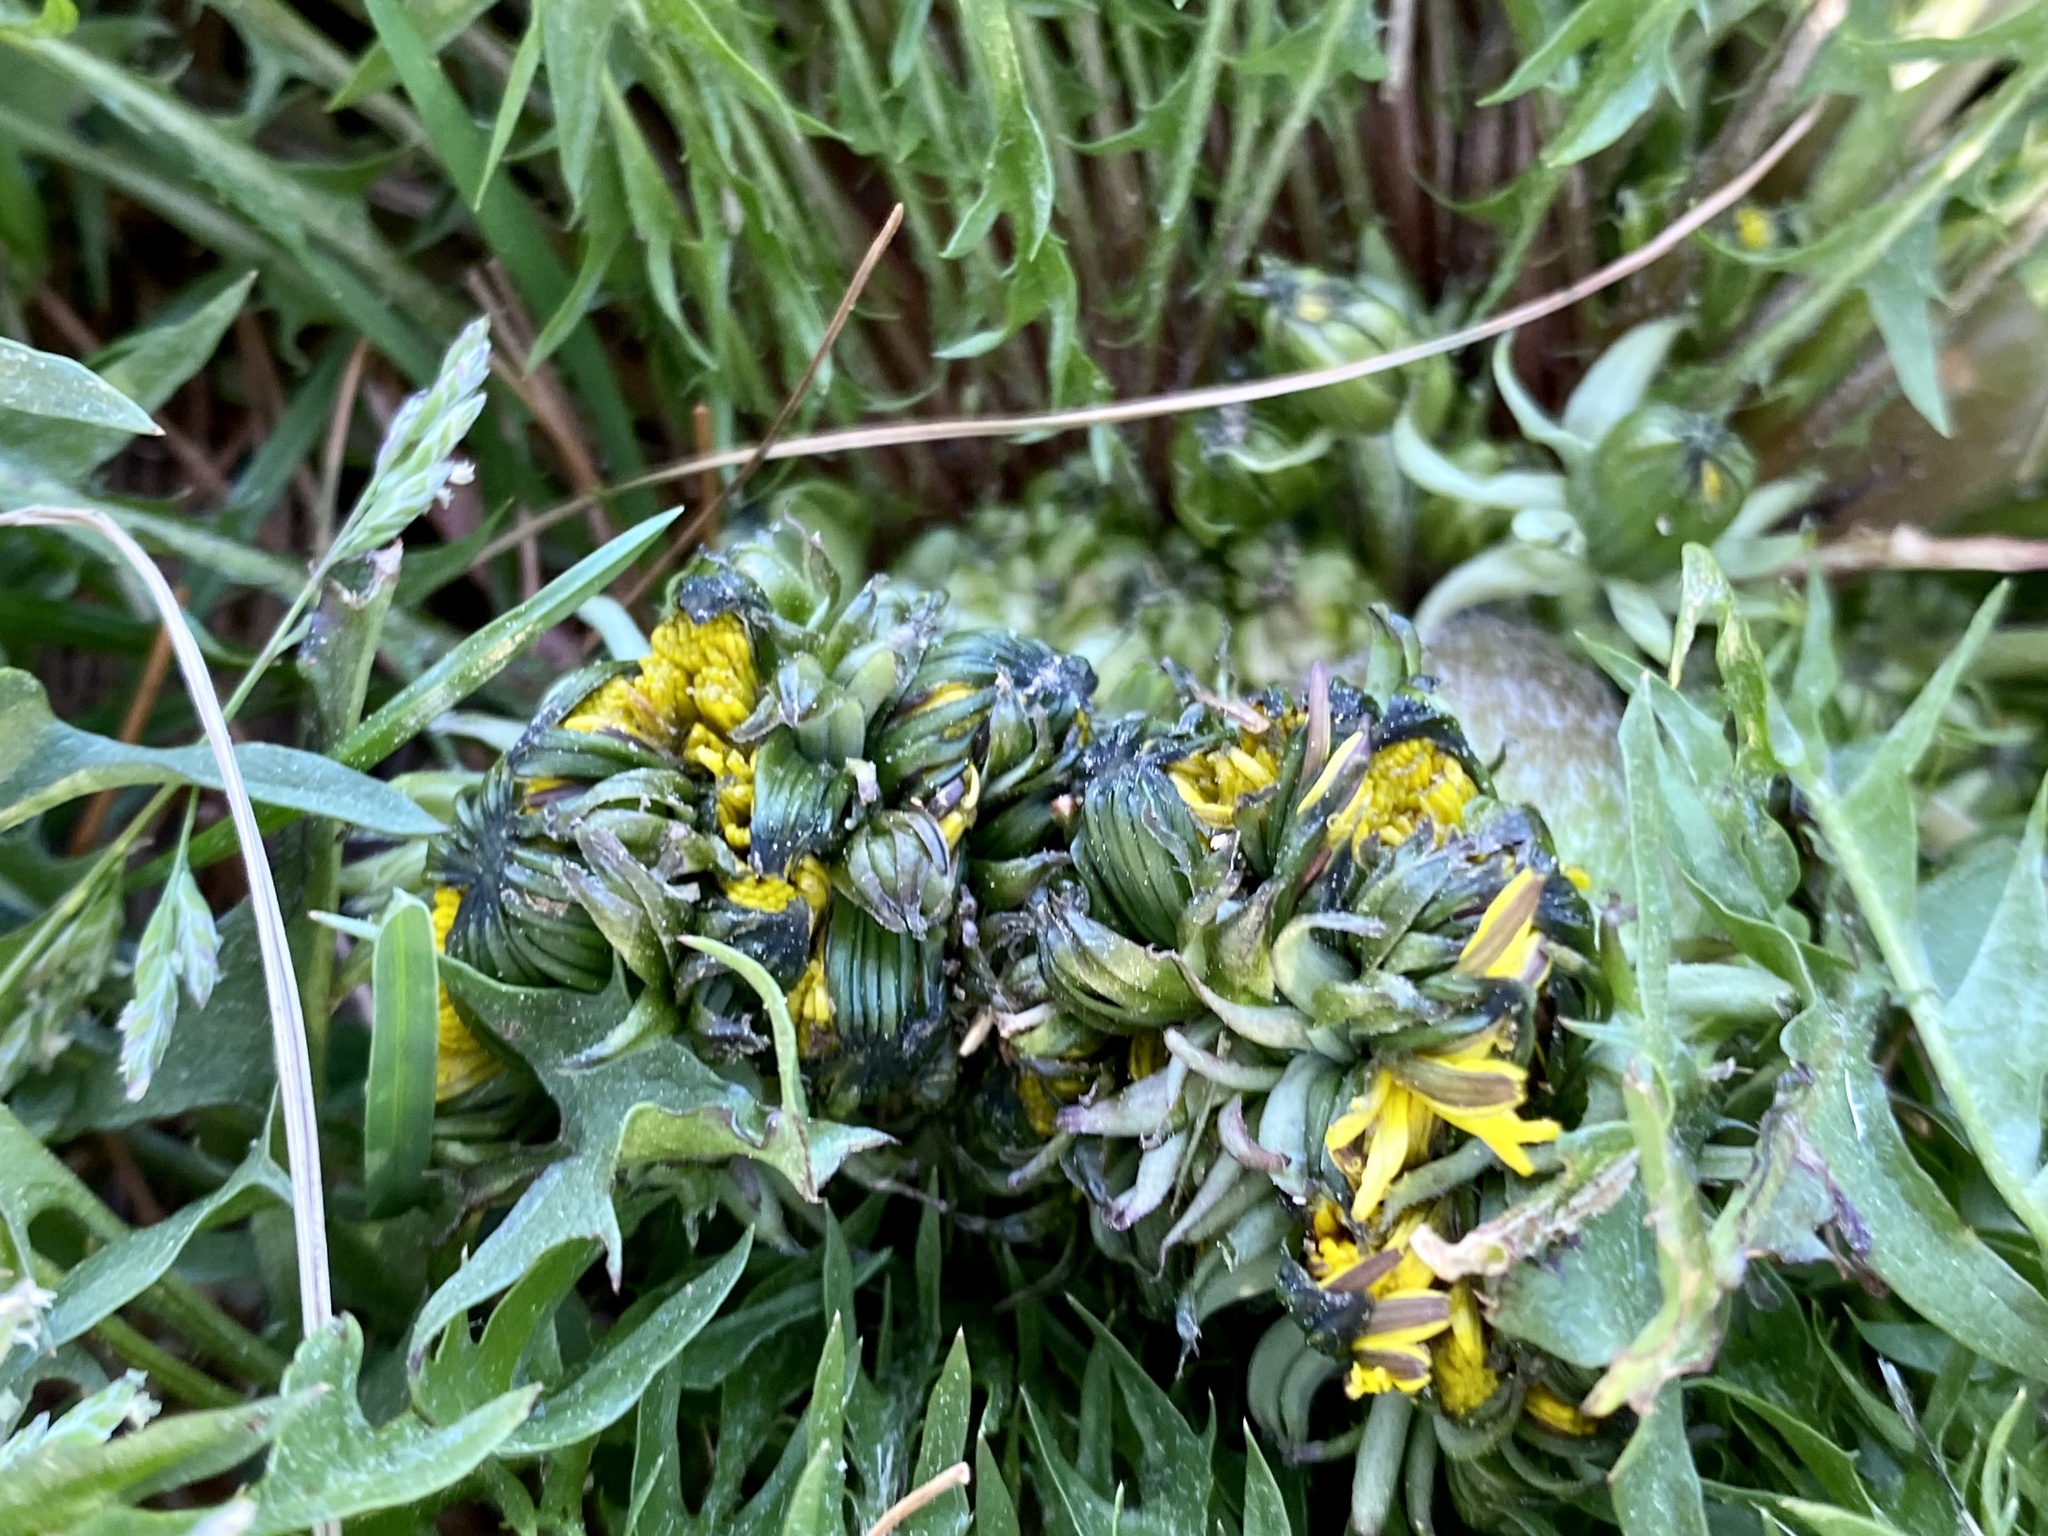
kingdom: Plantae
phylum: Tracheophyta
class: Magnoliopsida
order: Asterales
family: Asteraceae
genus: Taraxacum
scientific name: Taraxacum officinale
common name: Common dandelion
